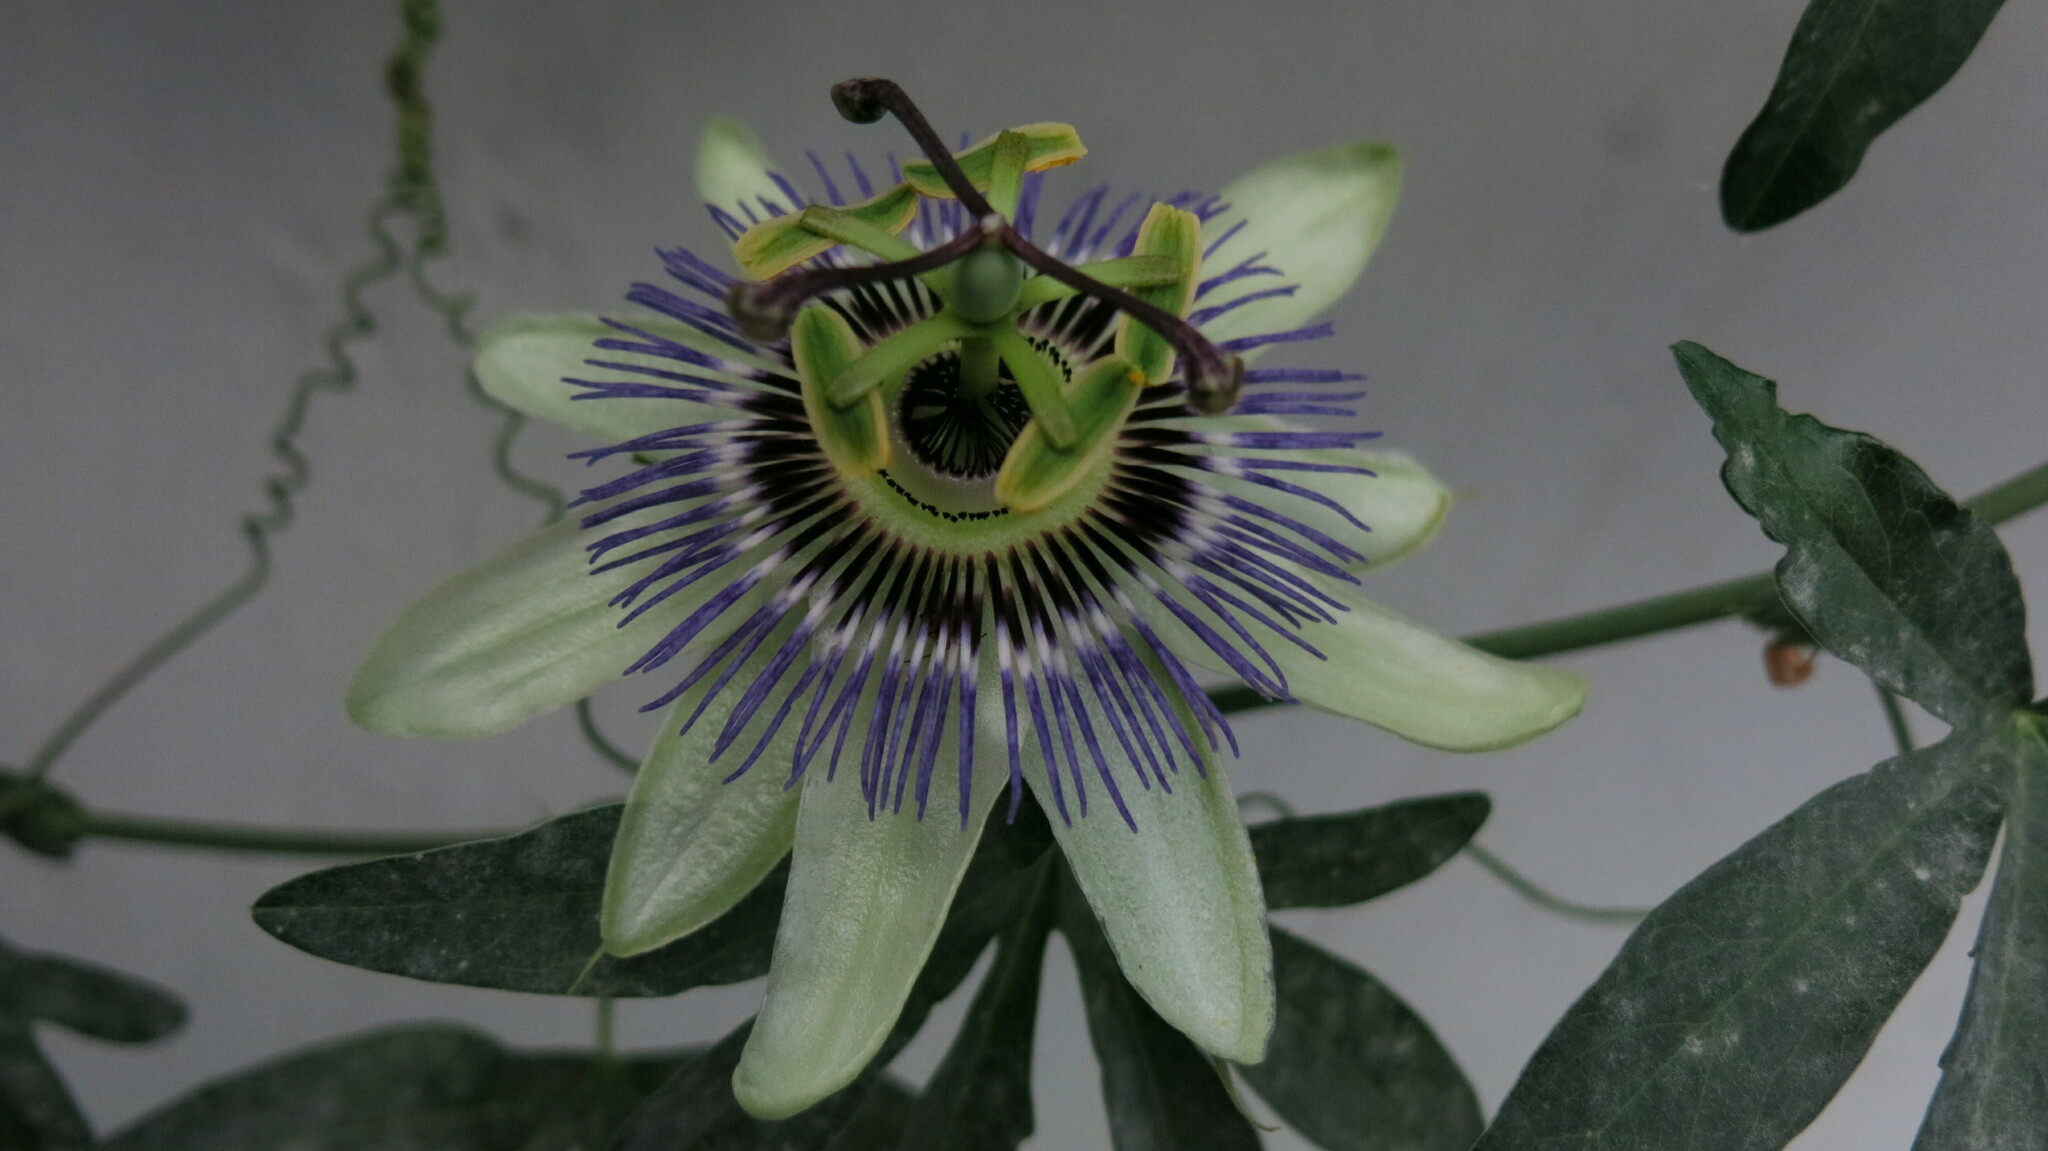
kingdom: Plantae
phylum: Tracheophyta
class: Magnoliopsida
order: Malpighiales
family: Passifloraceae
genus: Passiflora
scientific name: Passiflora caerulea
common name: Blue passionflower
